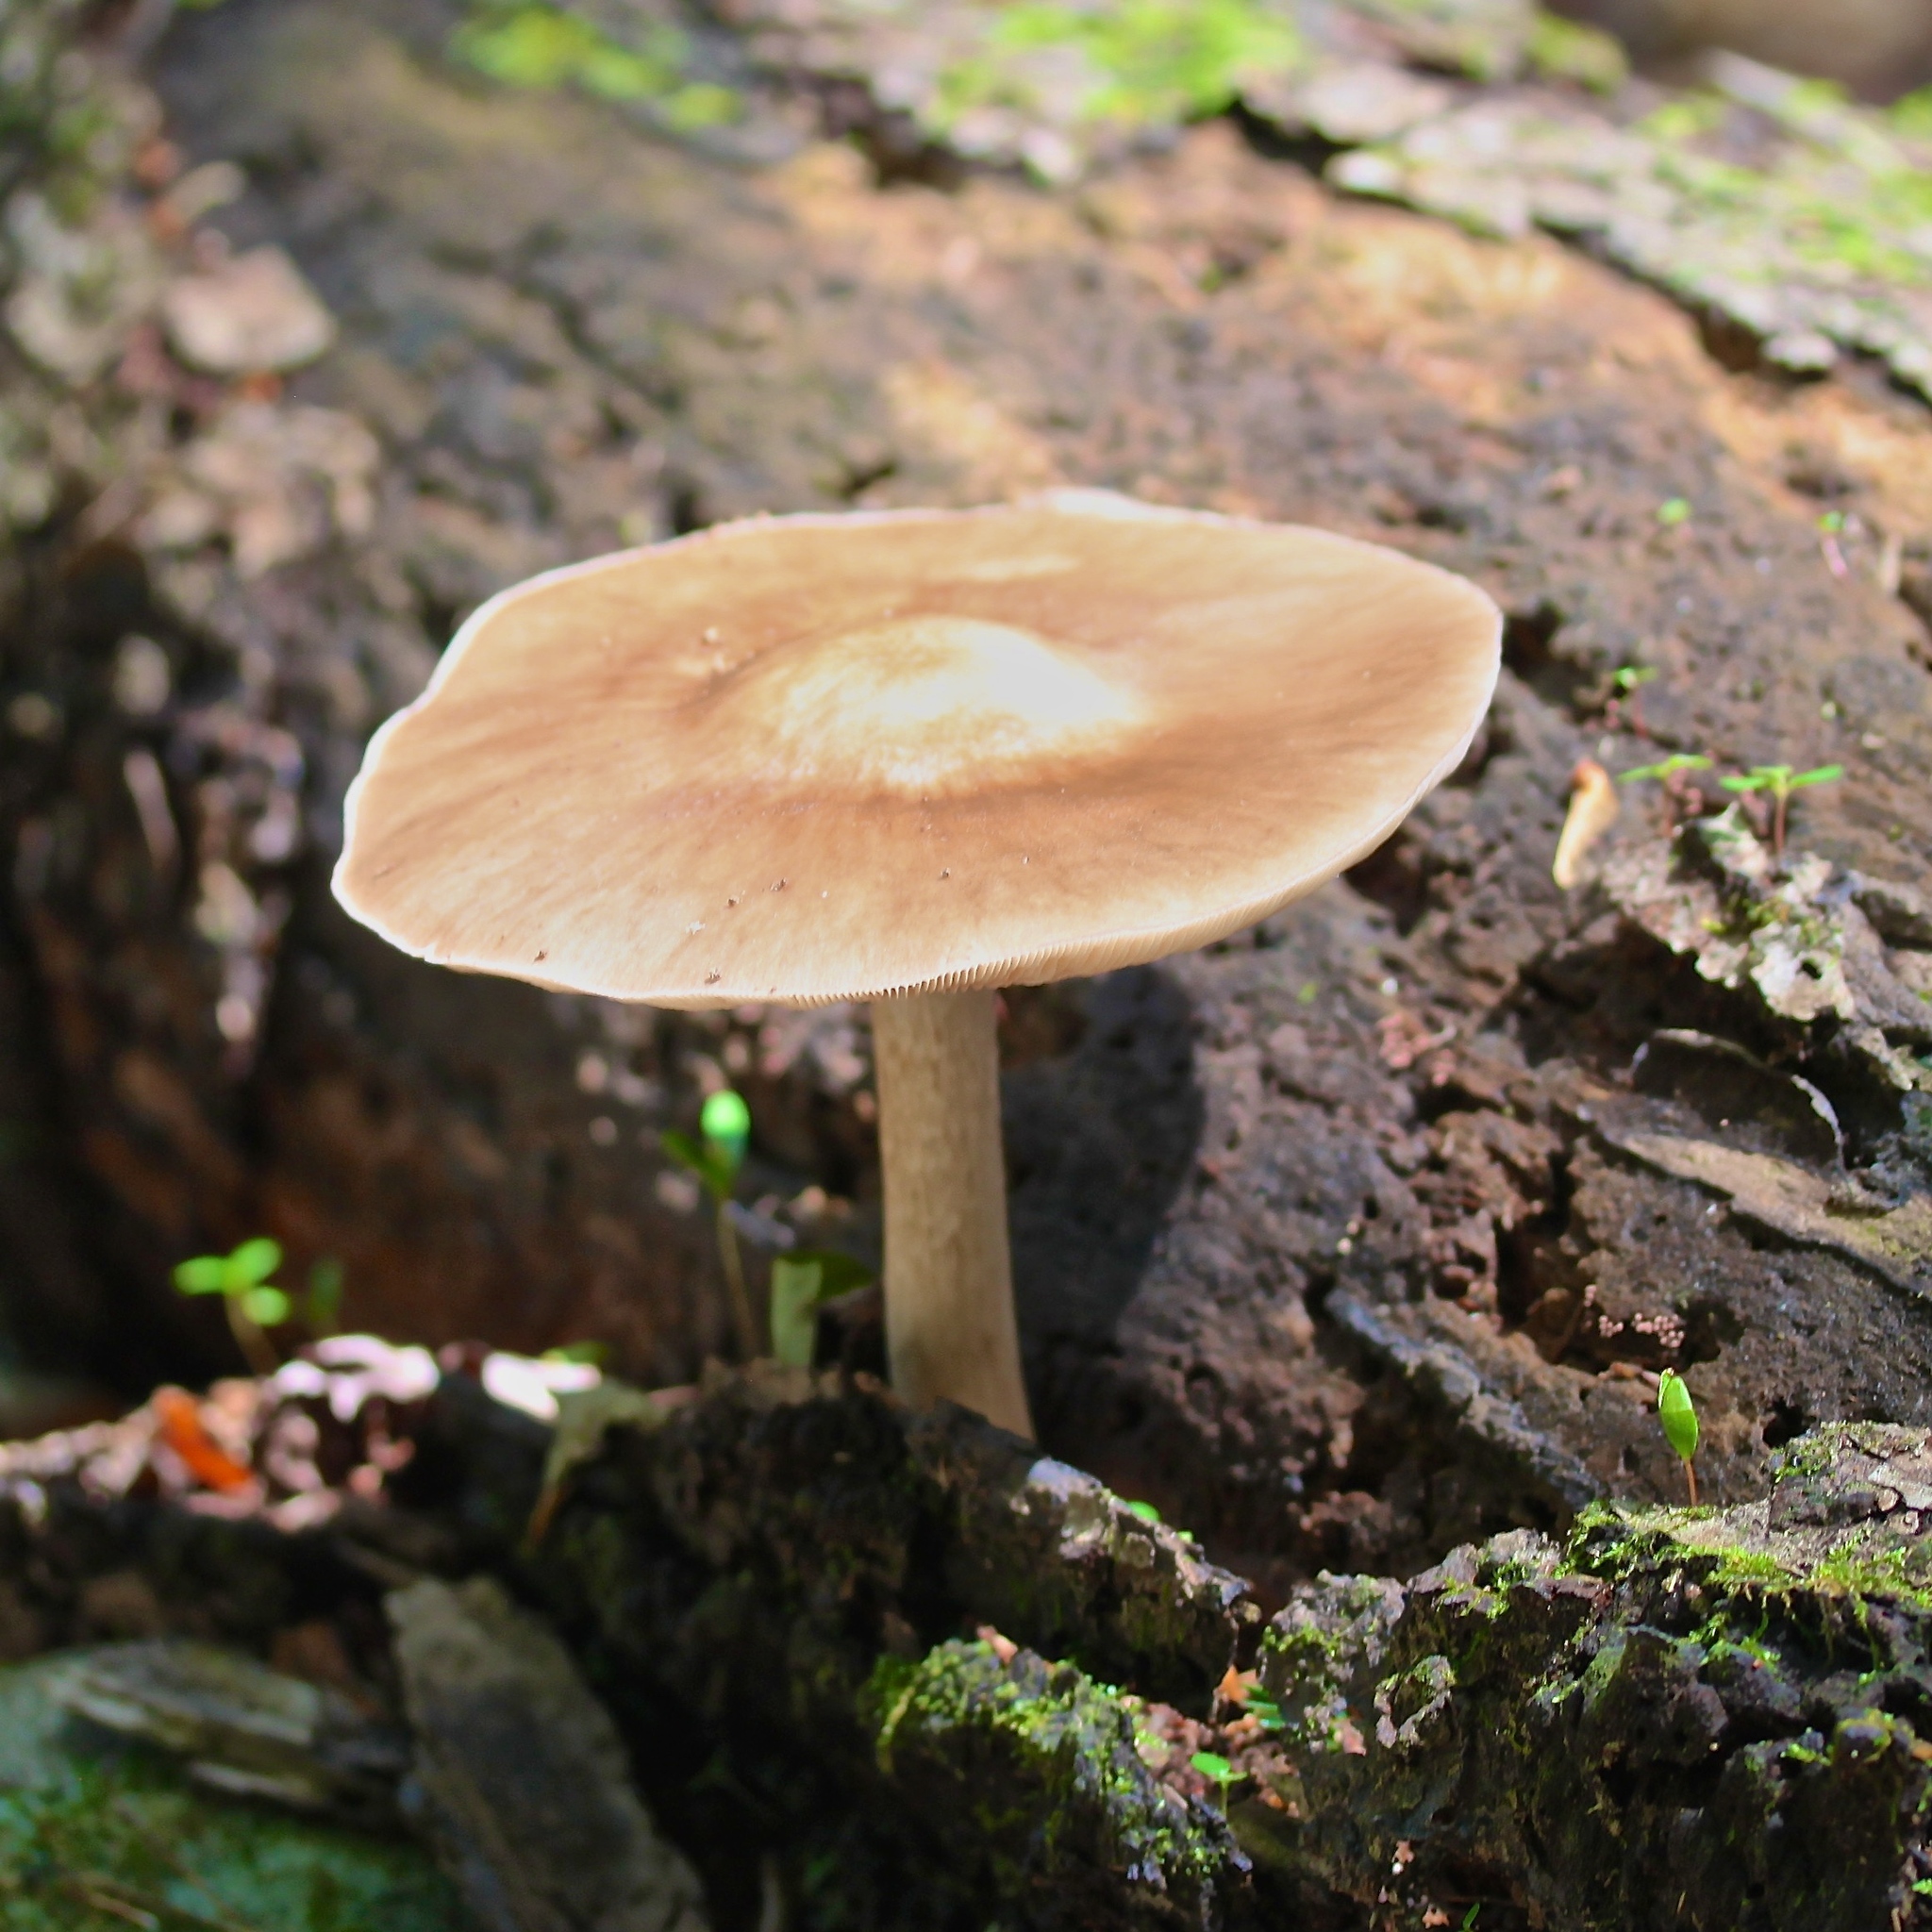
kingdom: Fungi
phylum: Basidiomycota
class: Agaricomycetes
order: Agaricales
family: Pluteaceae
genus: Pluteus
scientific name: Pluteus cervinus
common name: Deer shield
